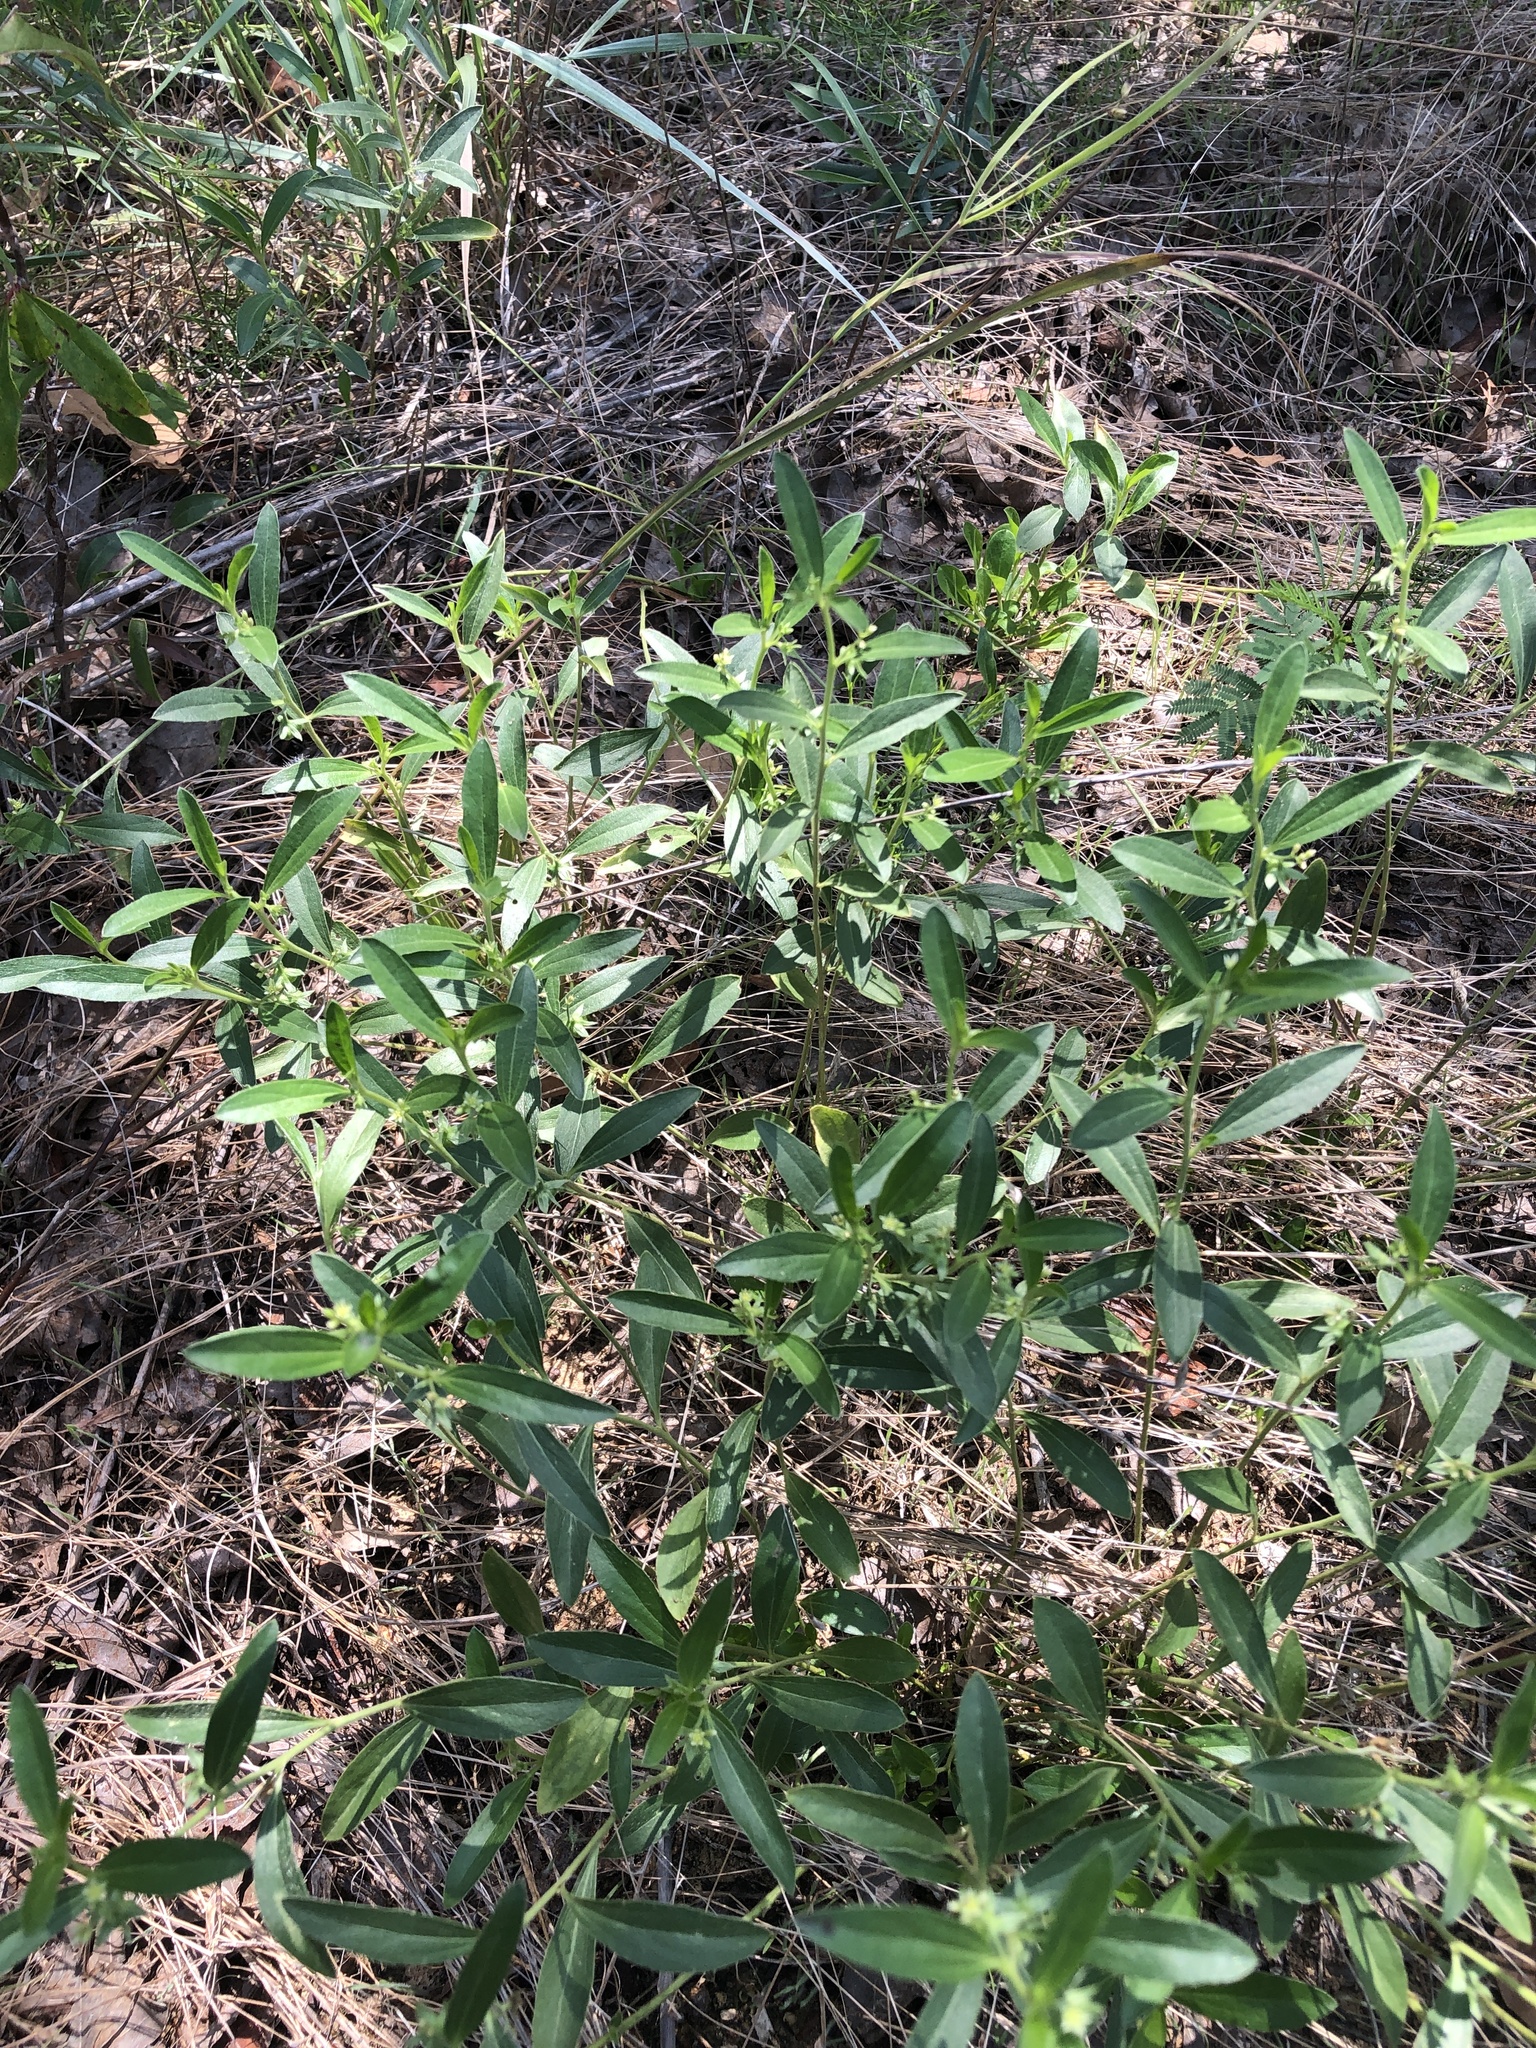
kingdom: Plantae
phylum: Tracheophyta
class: Magnoliopsida
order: Malpighiales
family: Euphorbiaceae
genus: Ditaxis
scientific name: Ditaxis humilis
